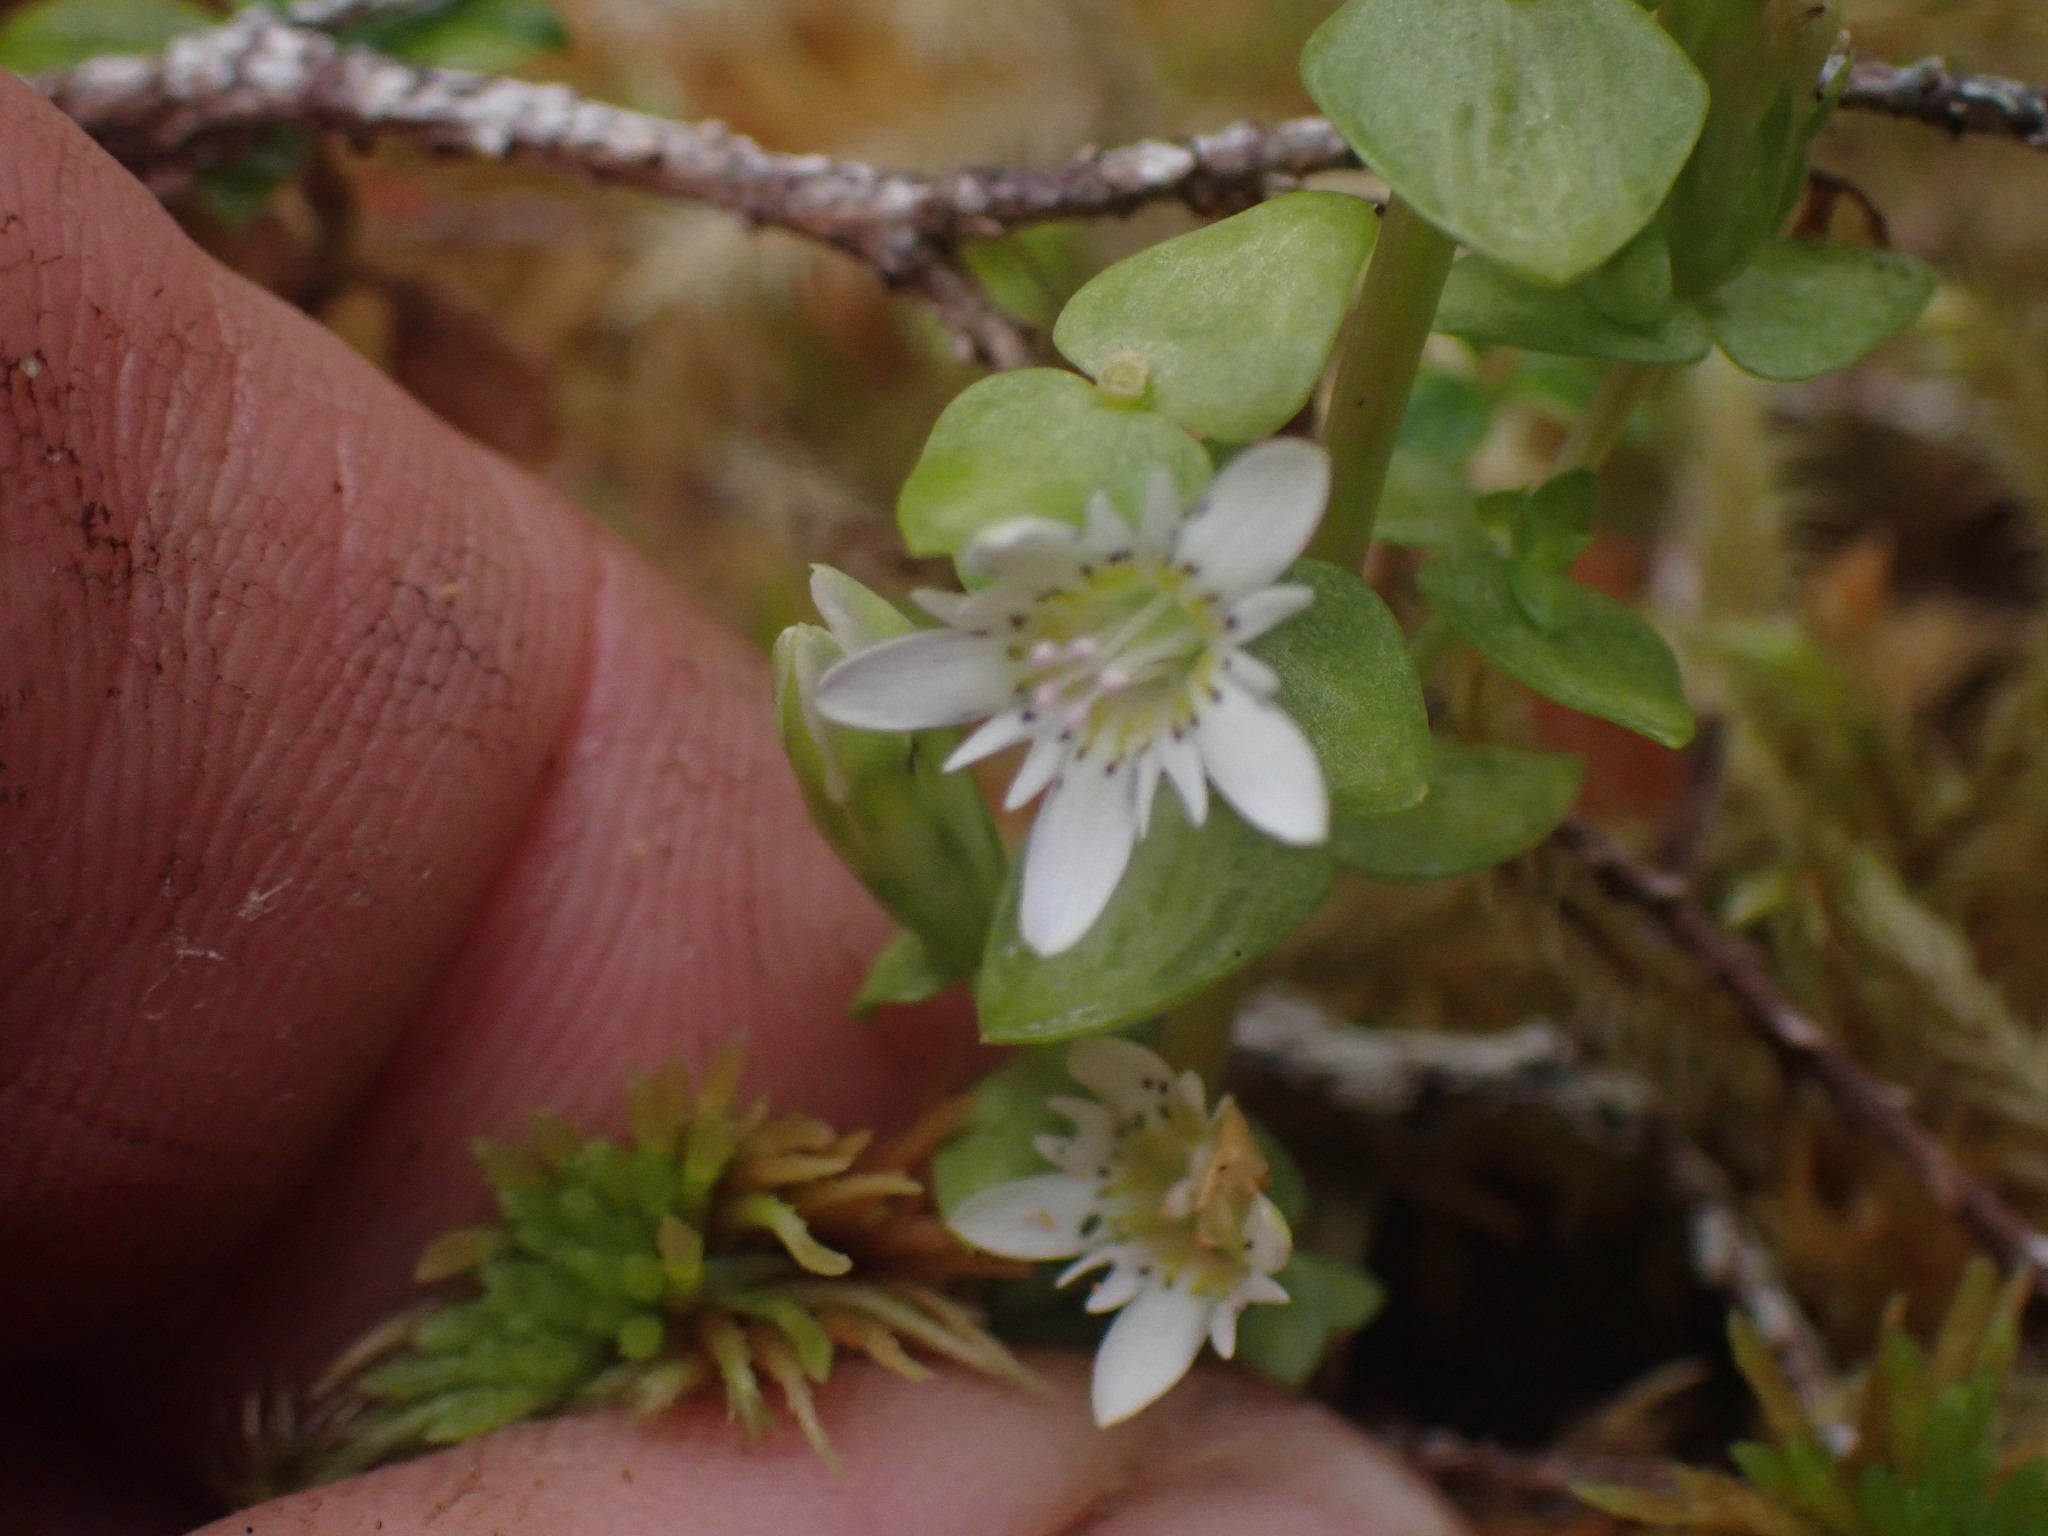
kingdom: Plantae
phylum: Tracheophyta
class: Magnoliopsida
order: Gentianales
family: Gentianaceae
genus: Gentiana
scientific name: Gentiana douglasiana
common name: Swamp gentian
